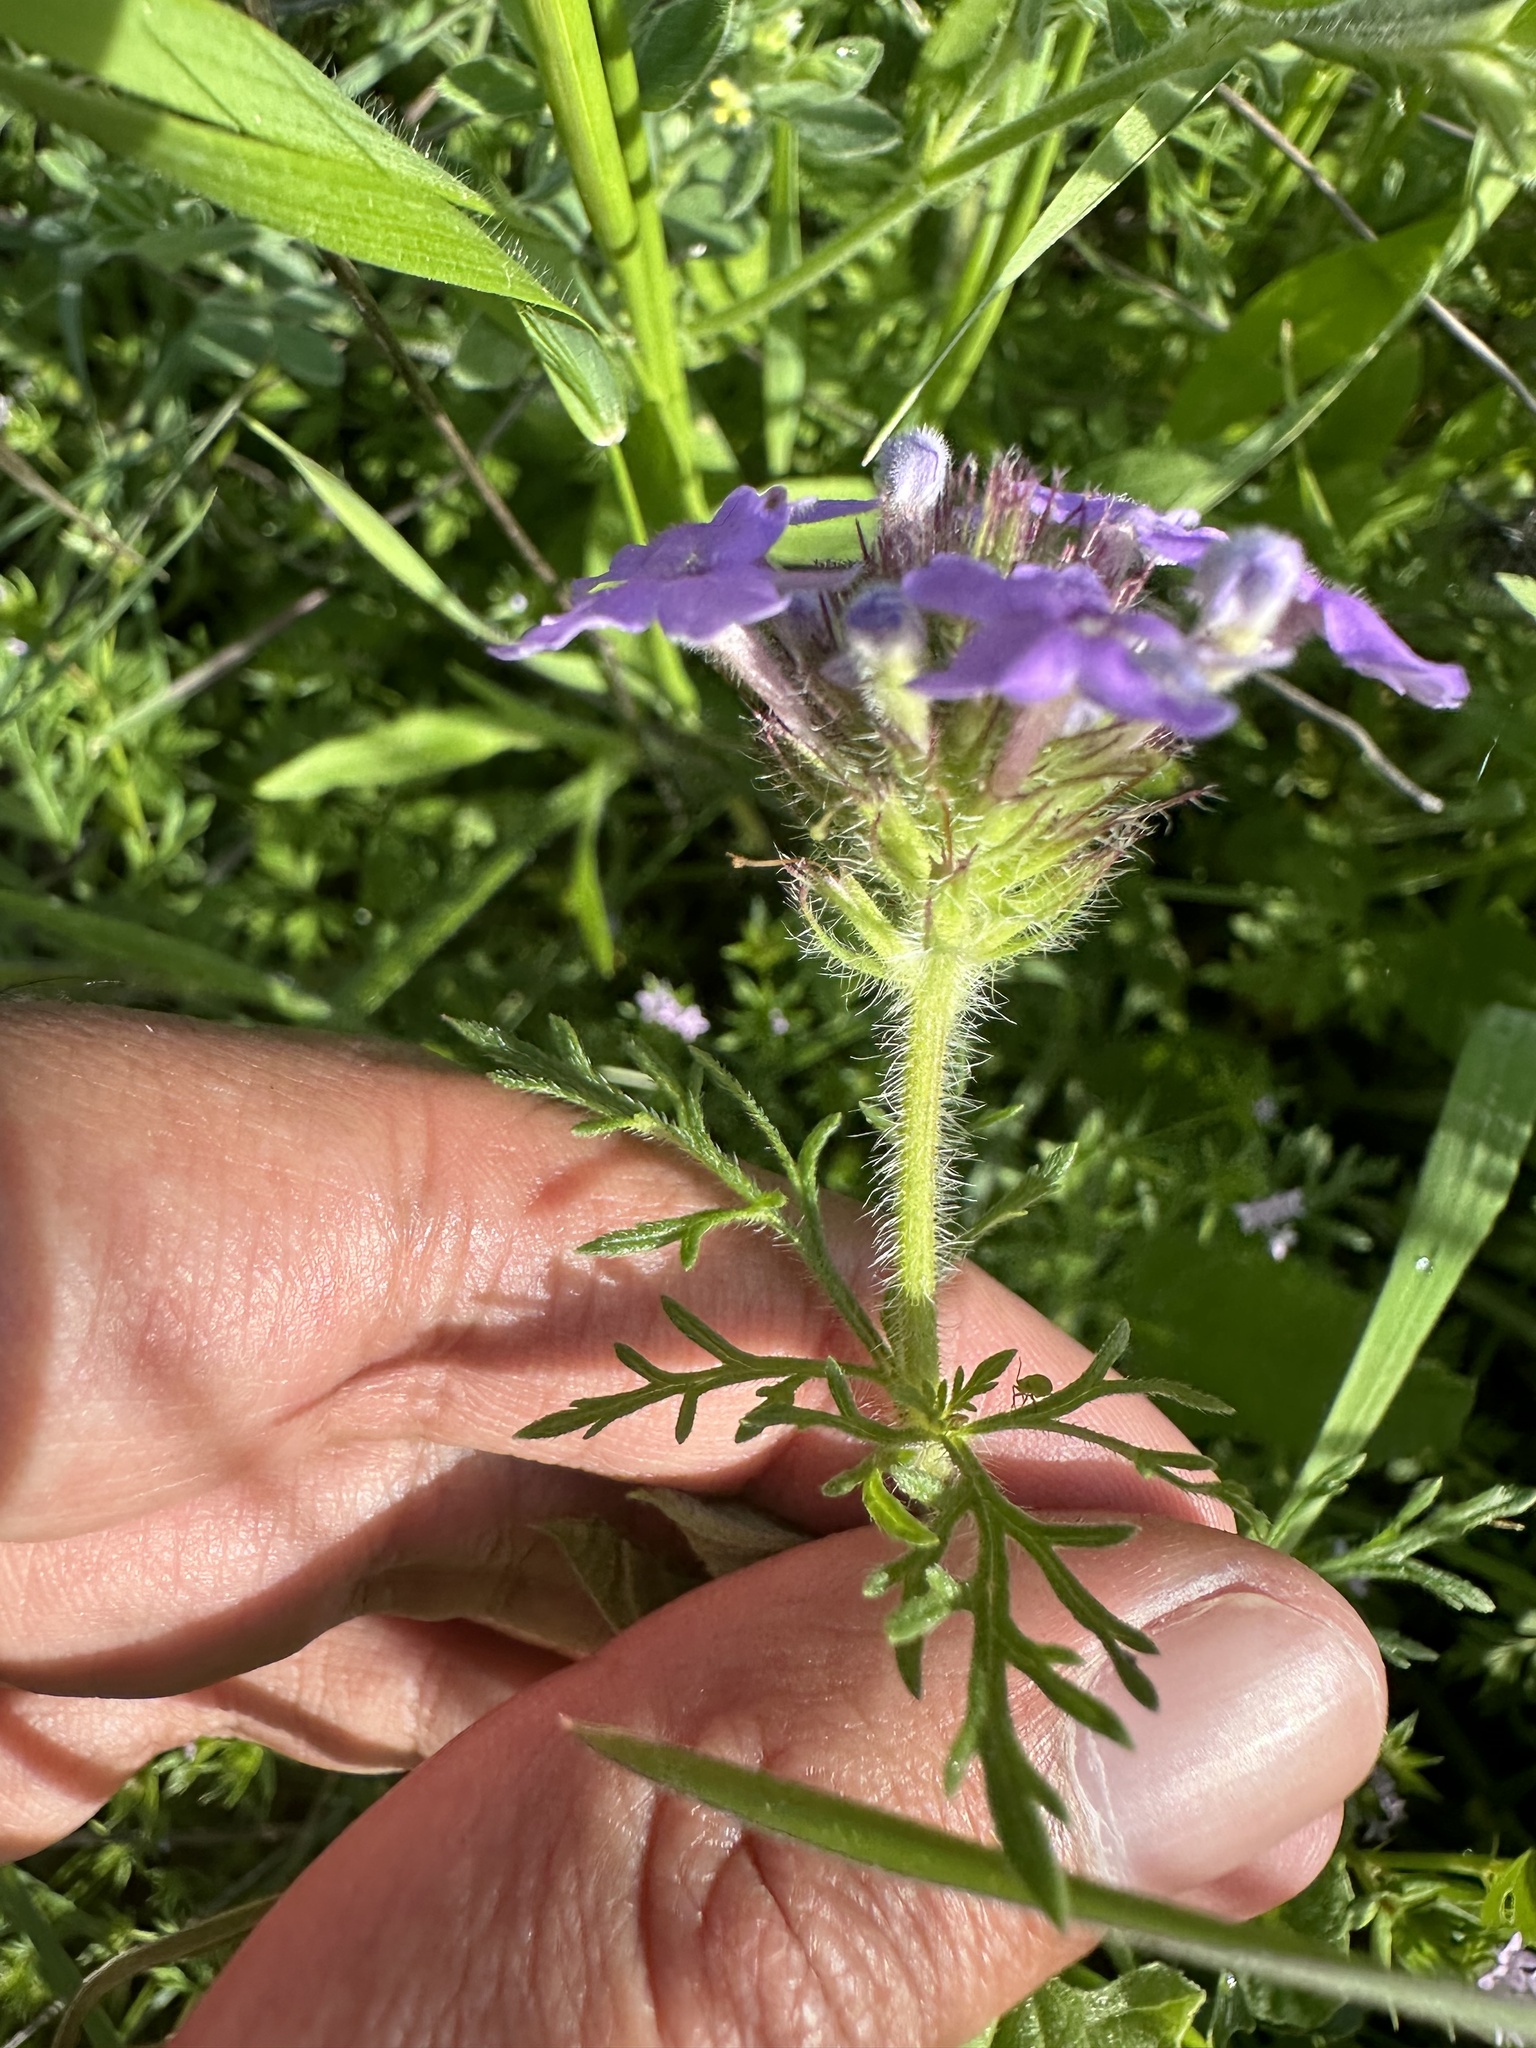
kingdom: Plantae
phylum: Tracheophyta
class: Magnoliopsida
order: Lamiales
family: Verbenaceae
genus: Verbena
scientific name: Verbena bipinnatifida
